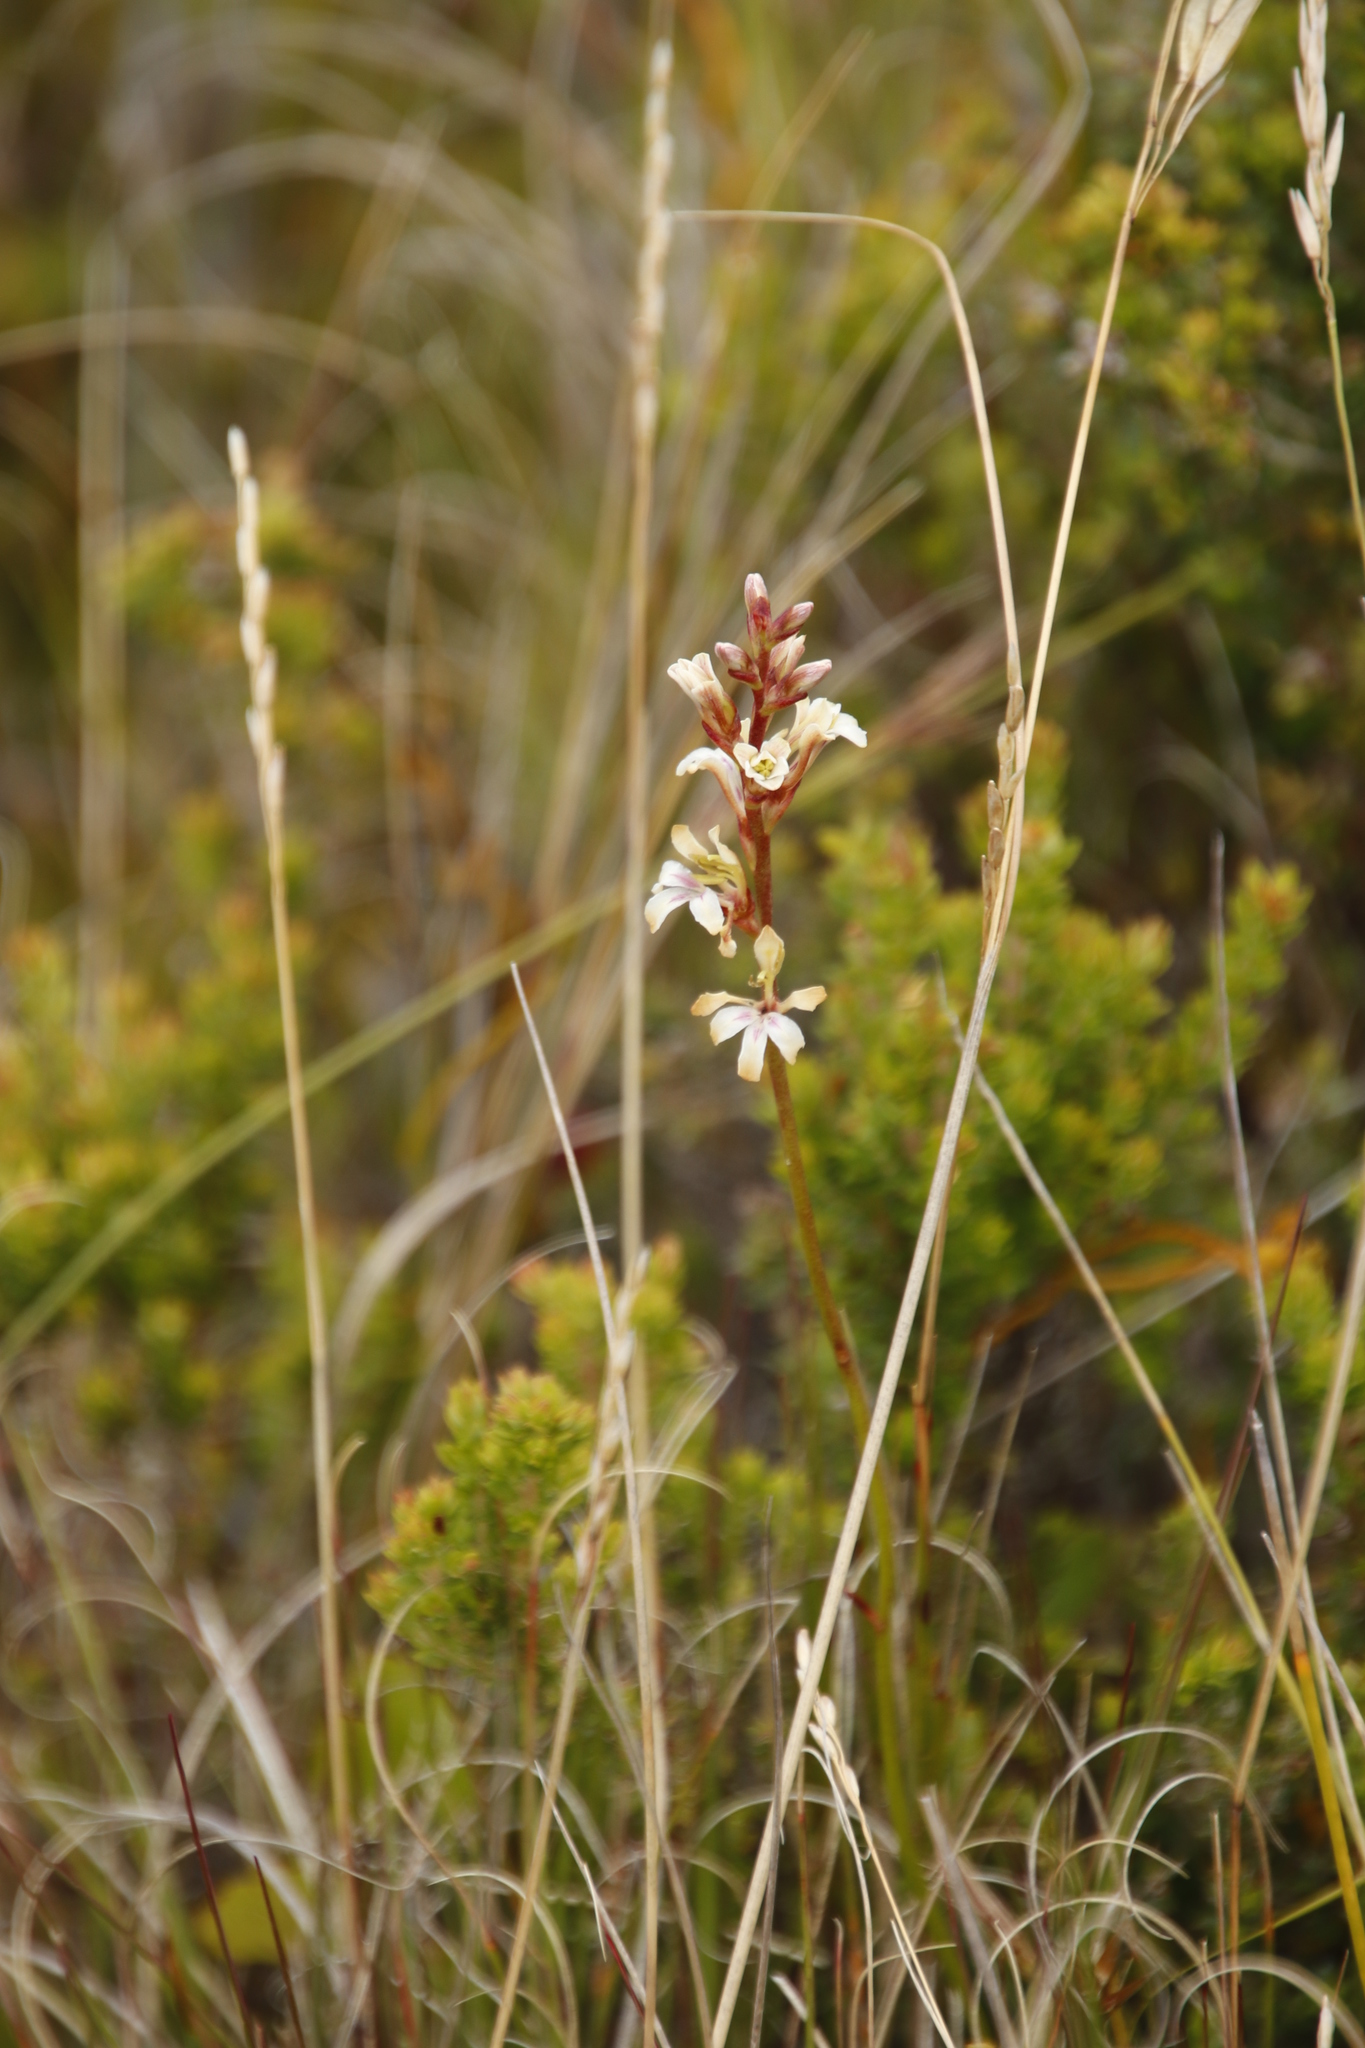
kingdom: Plantae
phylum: Tracheophyta
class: Liliopsida
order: Asparagales
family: Iridaceae
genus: Tritoniopsis
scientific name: Tritoniopsis unguicularis
